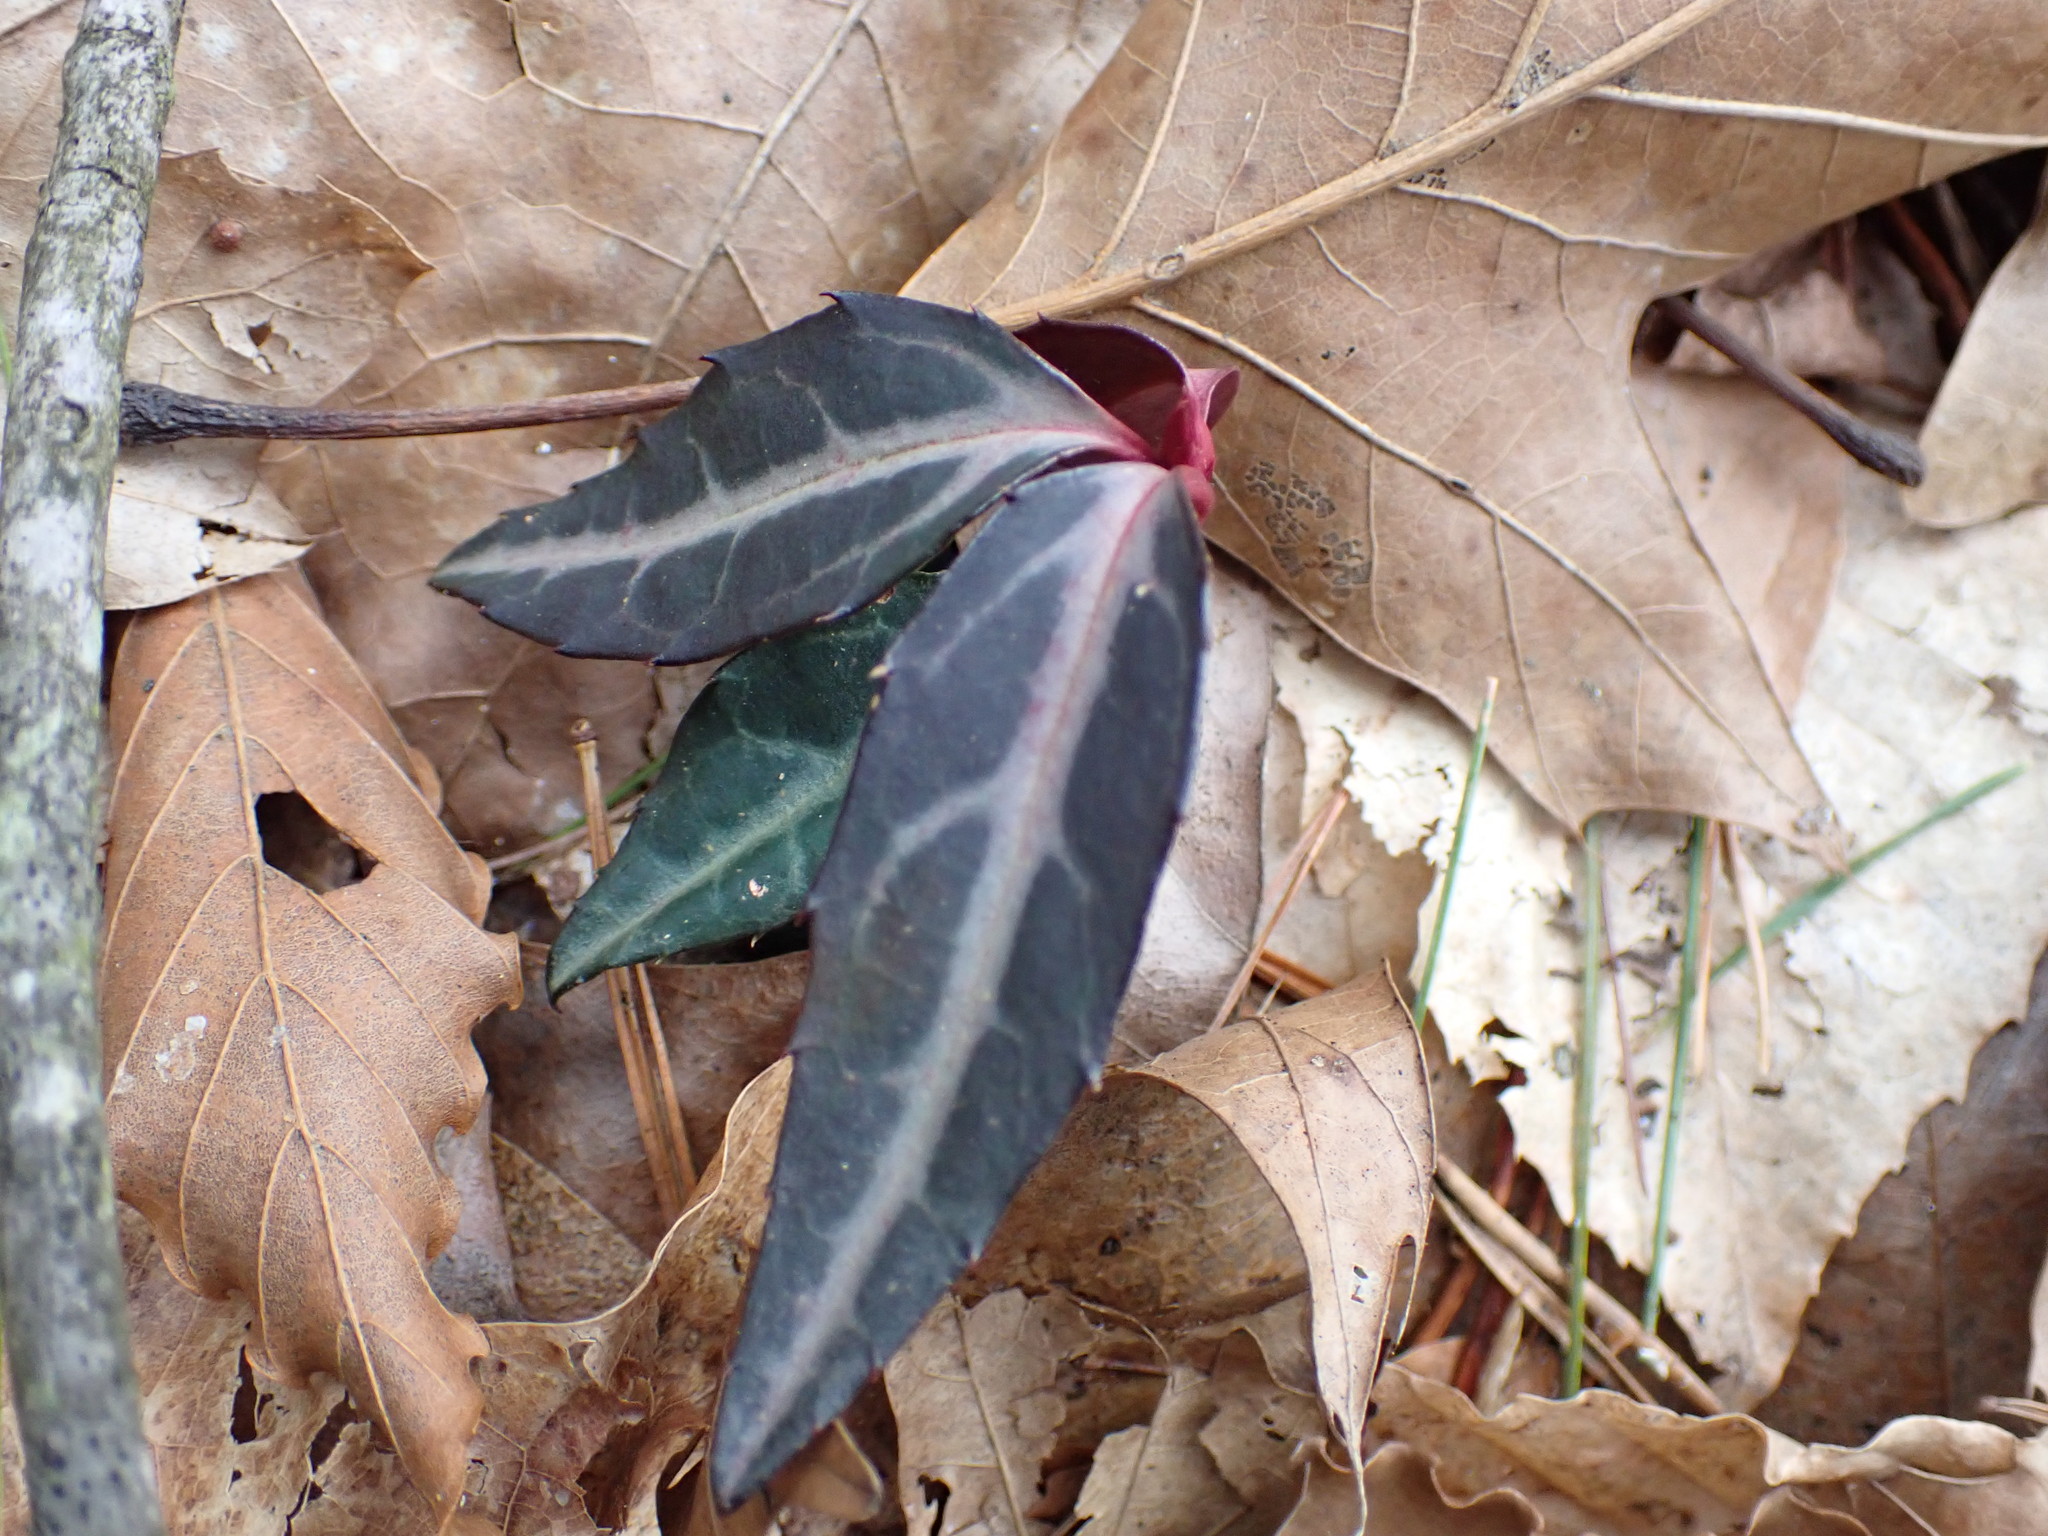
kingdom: Plantae
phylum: Tracheophyta
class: Magnoliopsida
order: Ericales
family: Ericaceae
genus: Chimaphila
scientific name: Chimaphila maculata
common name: Spotted pipsissewa
